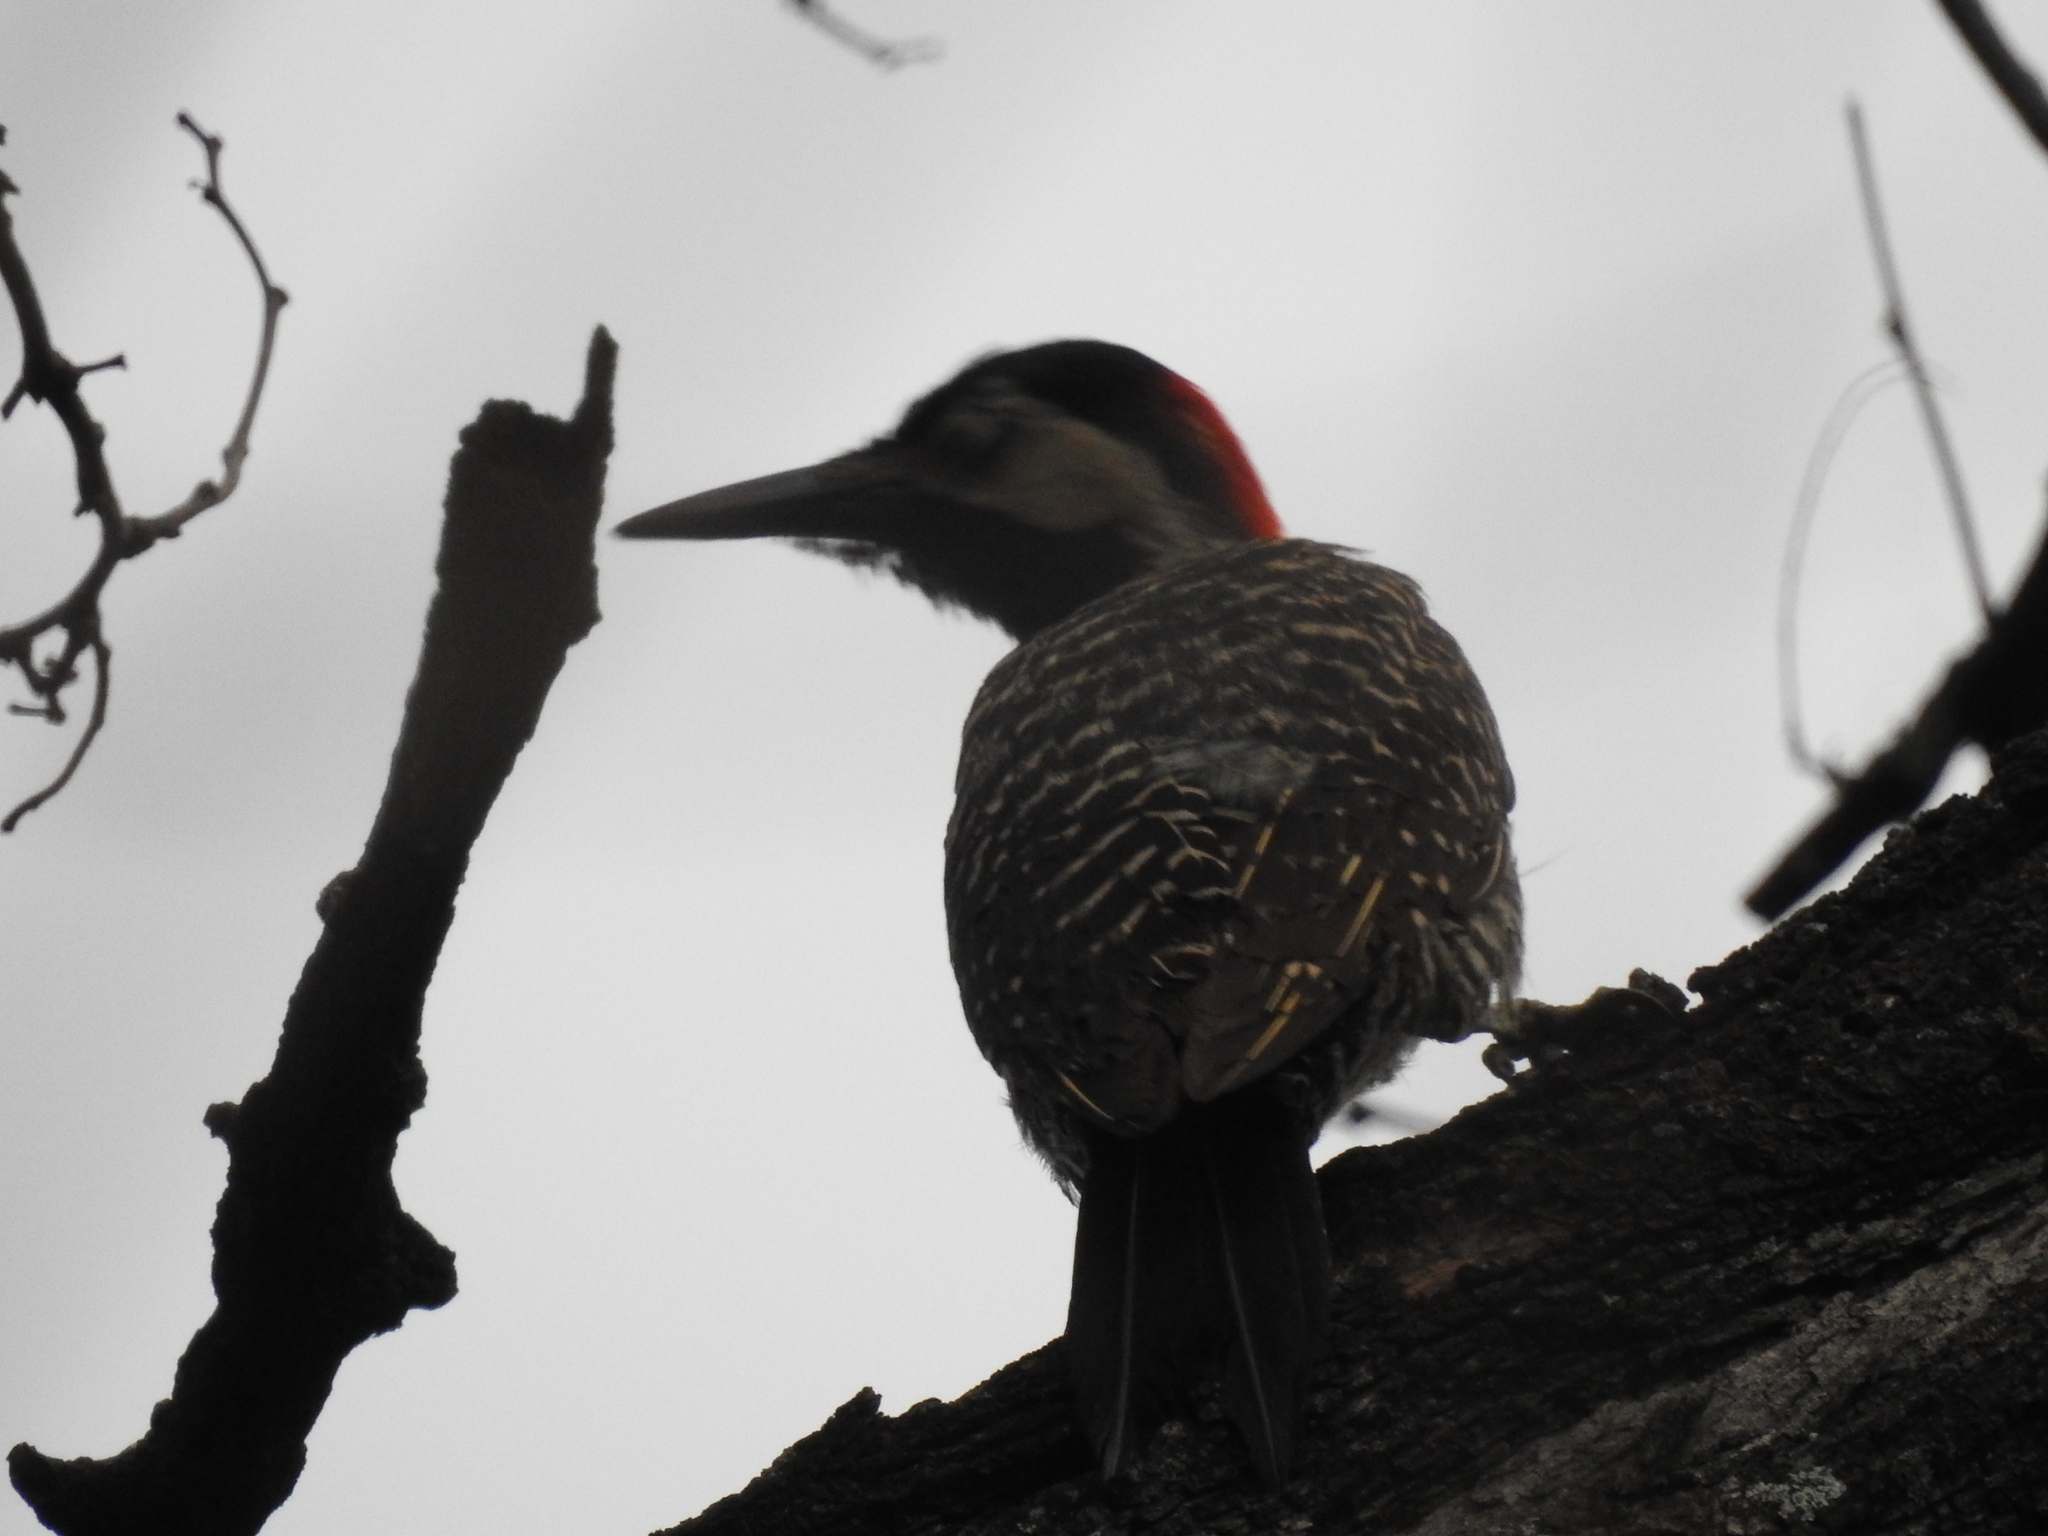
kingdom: Animalia
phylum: Chordata
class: Aves
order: Piciformes
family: Picidae
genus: Colaptes
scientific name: Colaptes melanochloros
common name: Green-barred woodpecker
